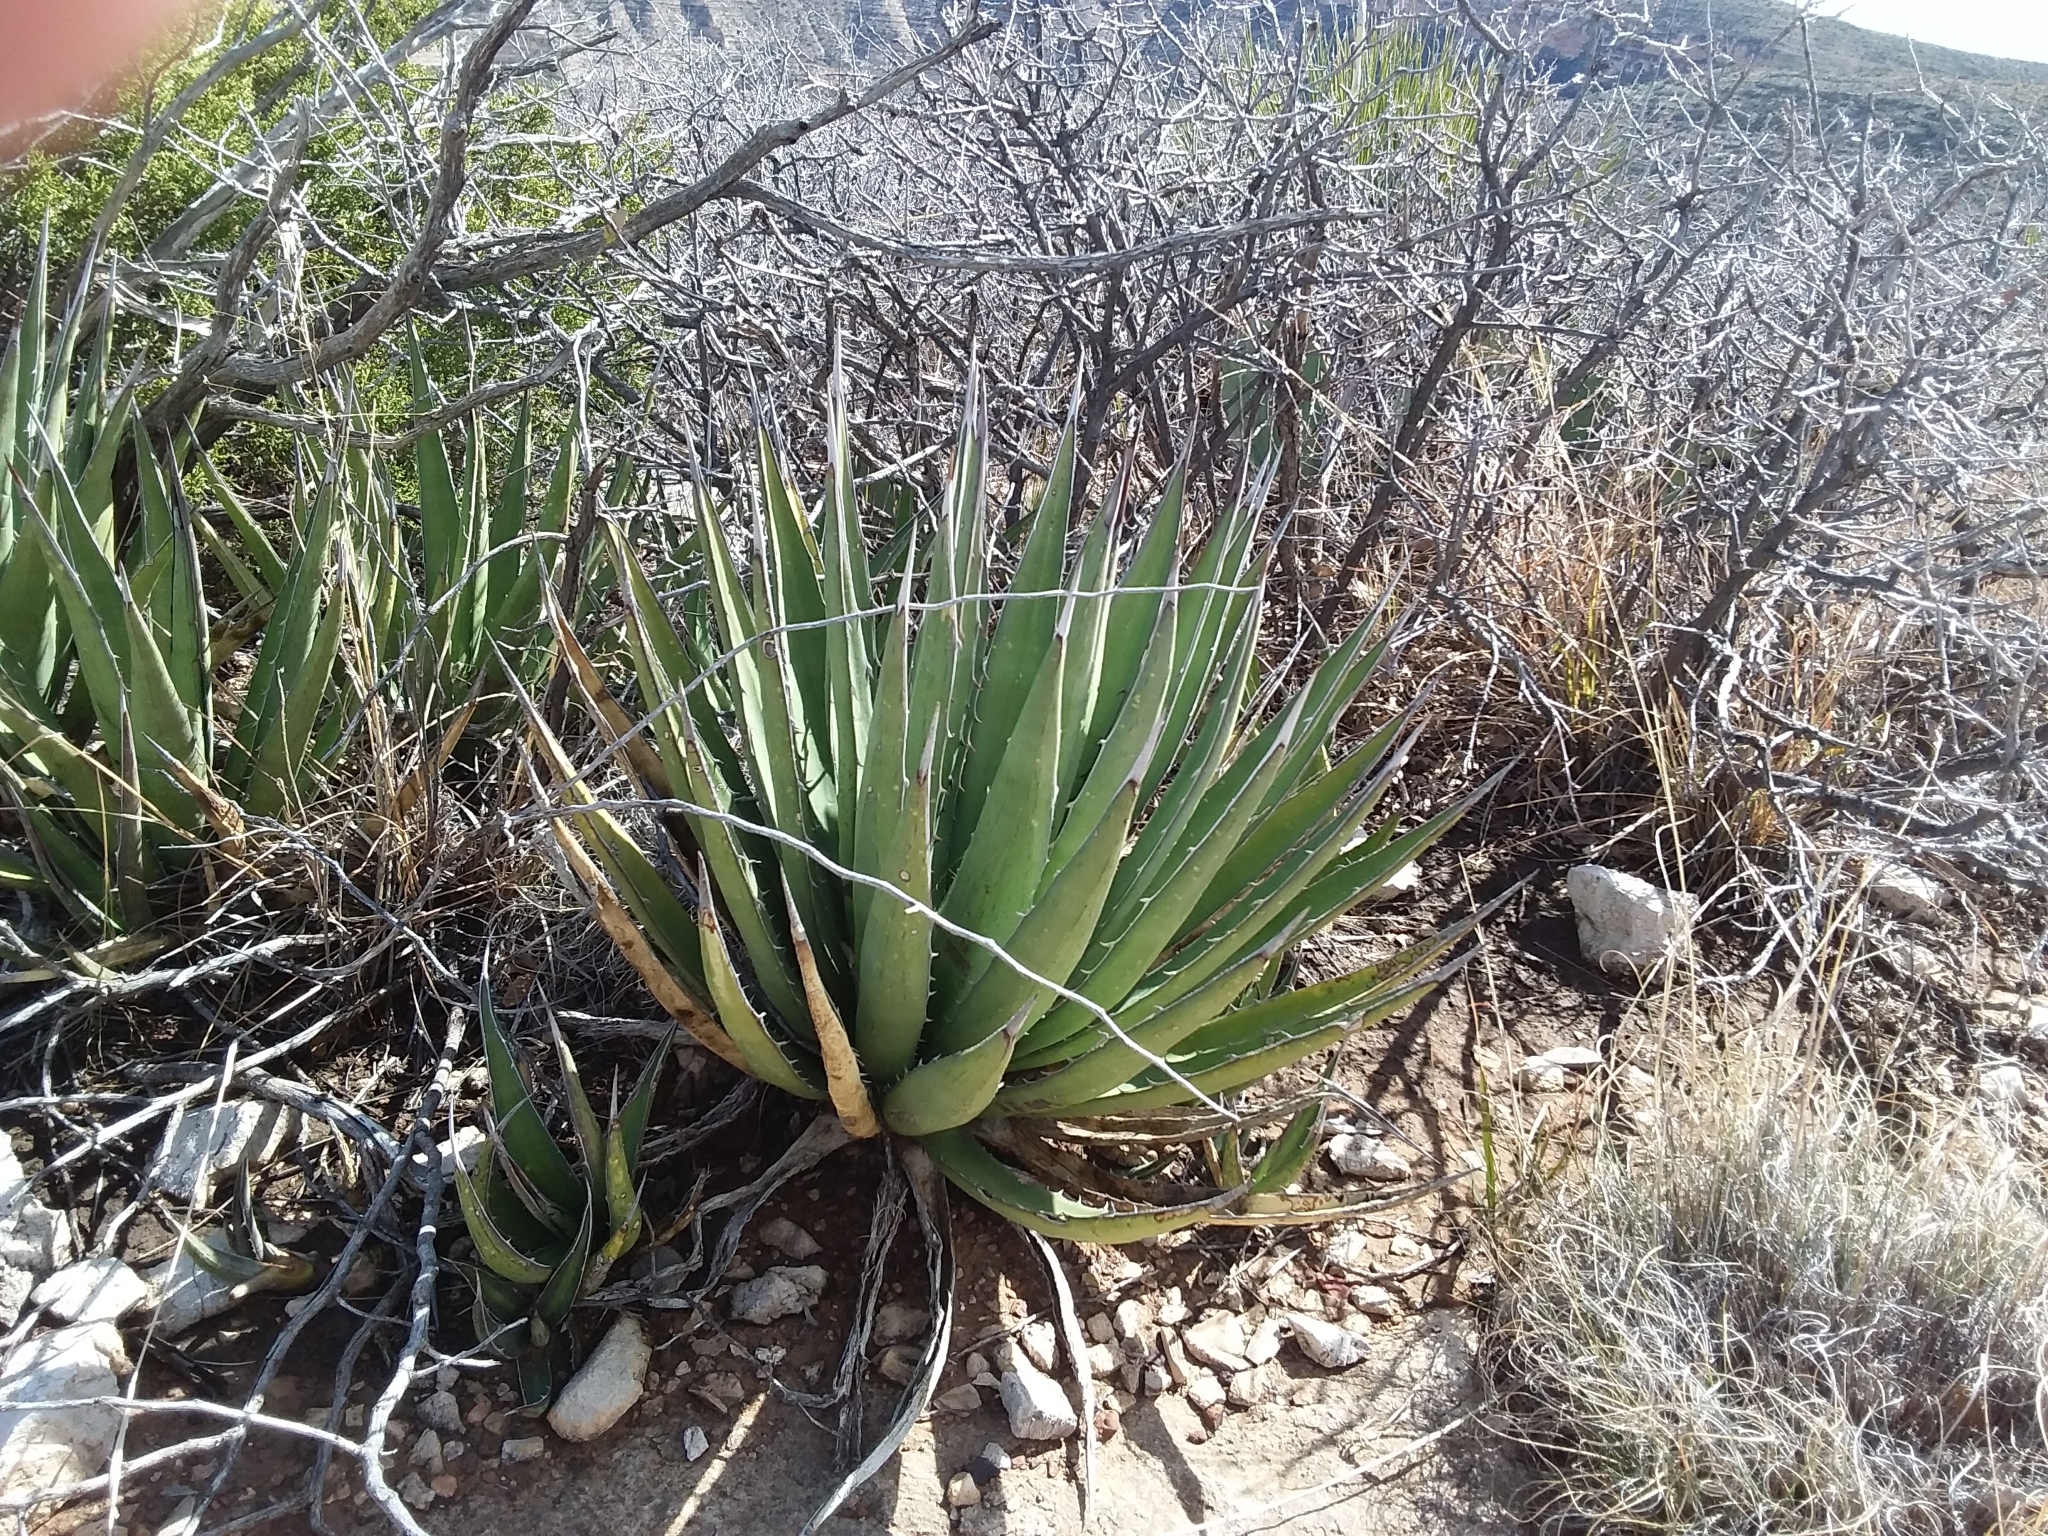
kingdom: Plantae
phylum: Tracheophyta
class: Liliopsida
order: Asparagales
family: Asparagaceae
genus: Agave
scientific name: Agave lechuguilla
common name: Lecheguilla agave
